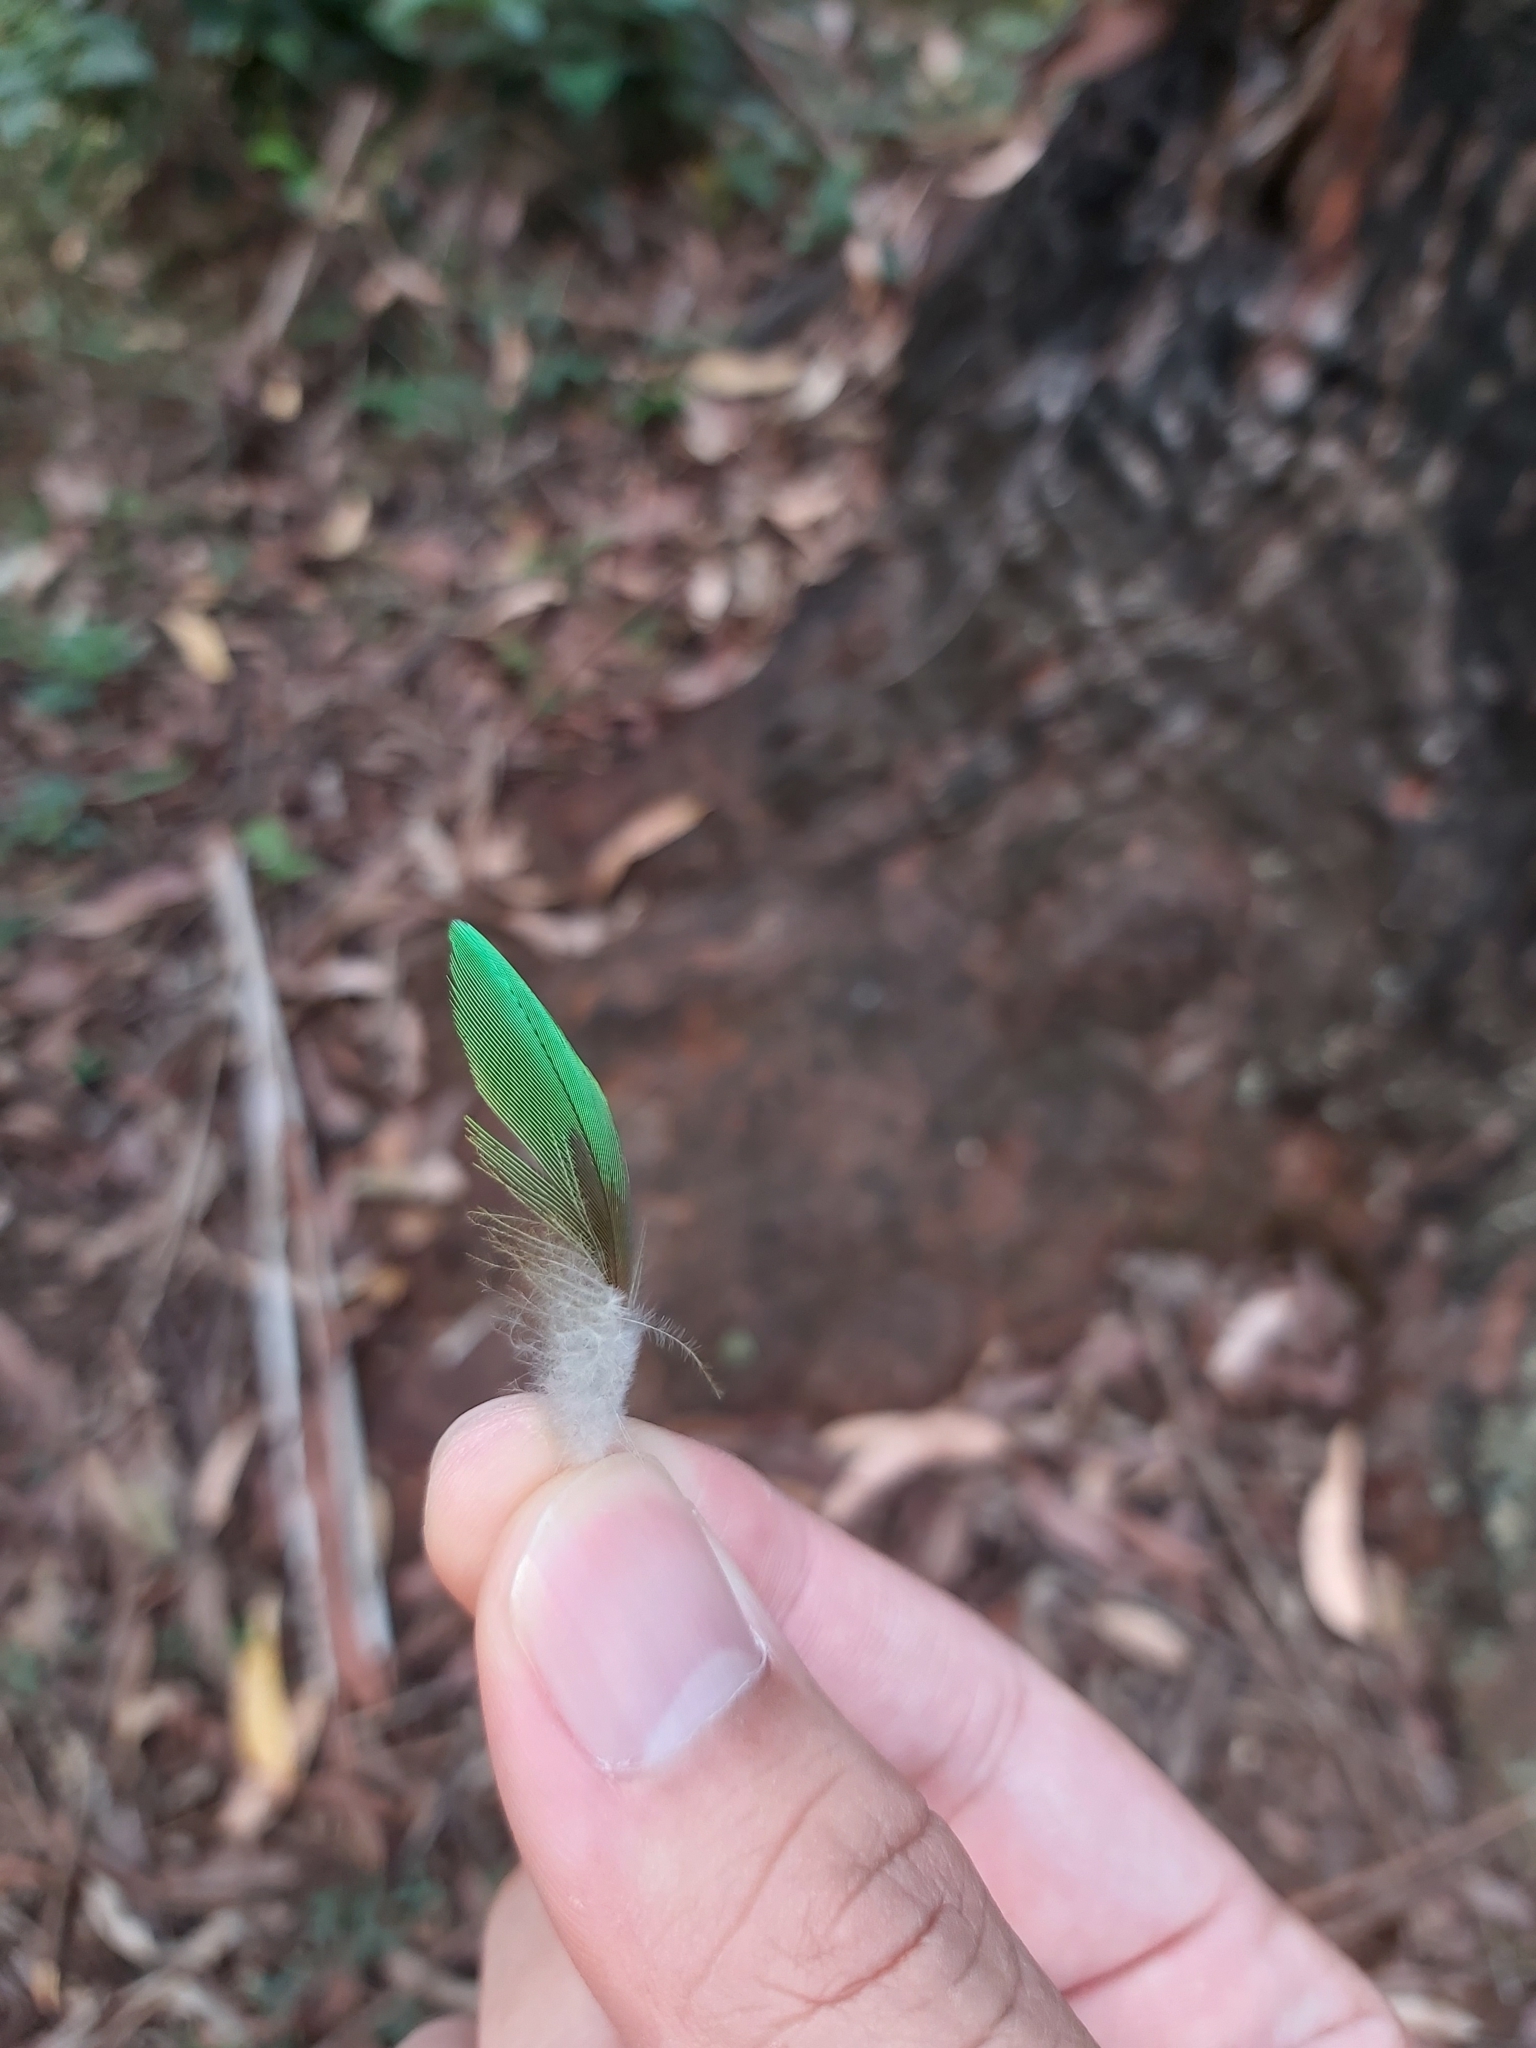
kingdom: Animalia
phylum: Chordata
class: Aves
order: Psittaciformes
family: Psittacidae
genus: Trichoglossus
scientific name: Trichoglossus haematodus
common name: Coconut lorikeet
